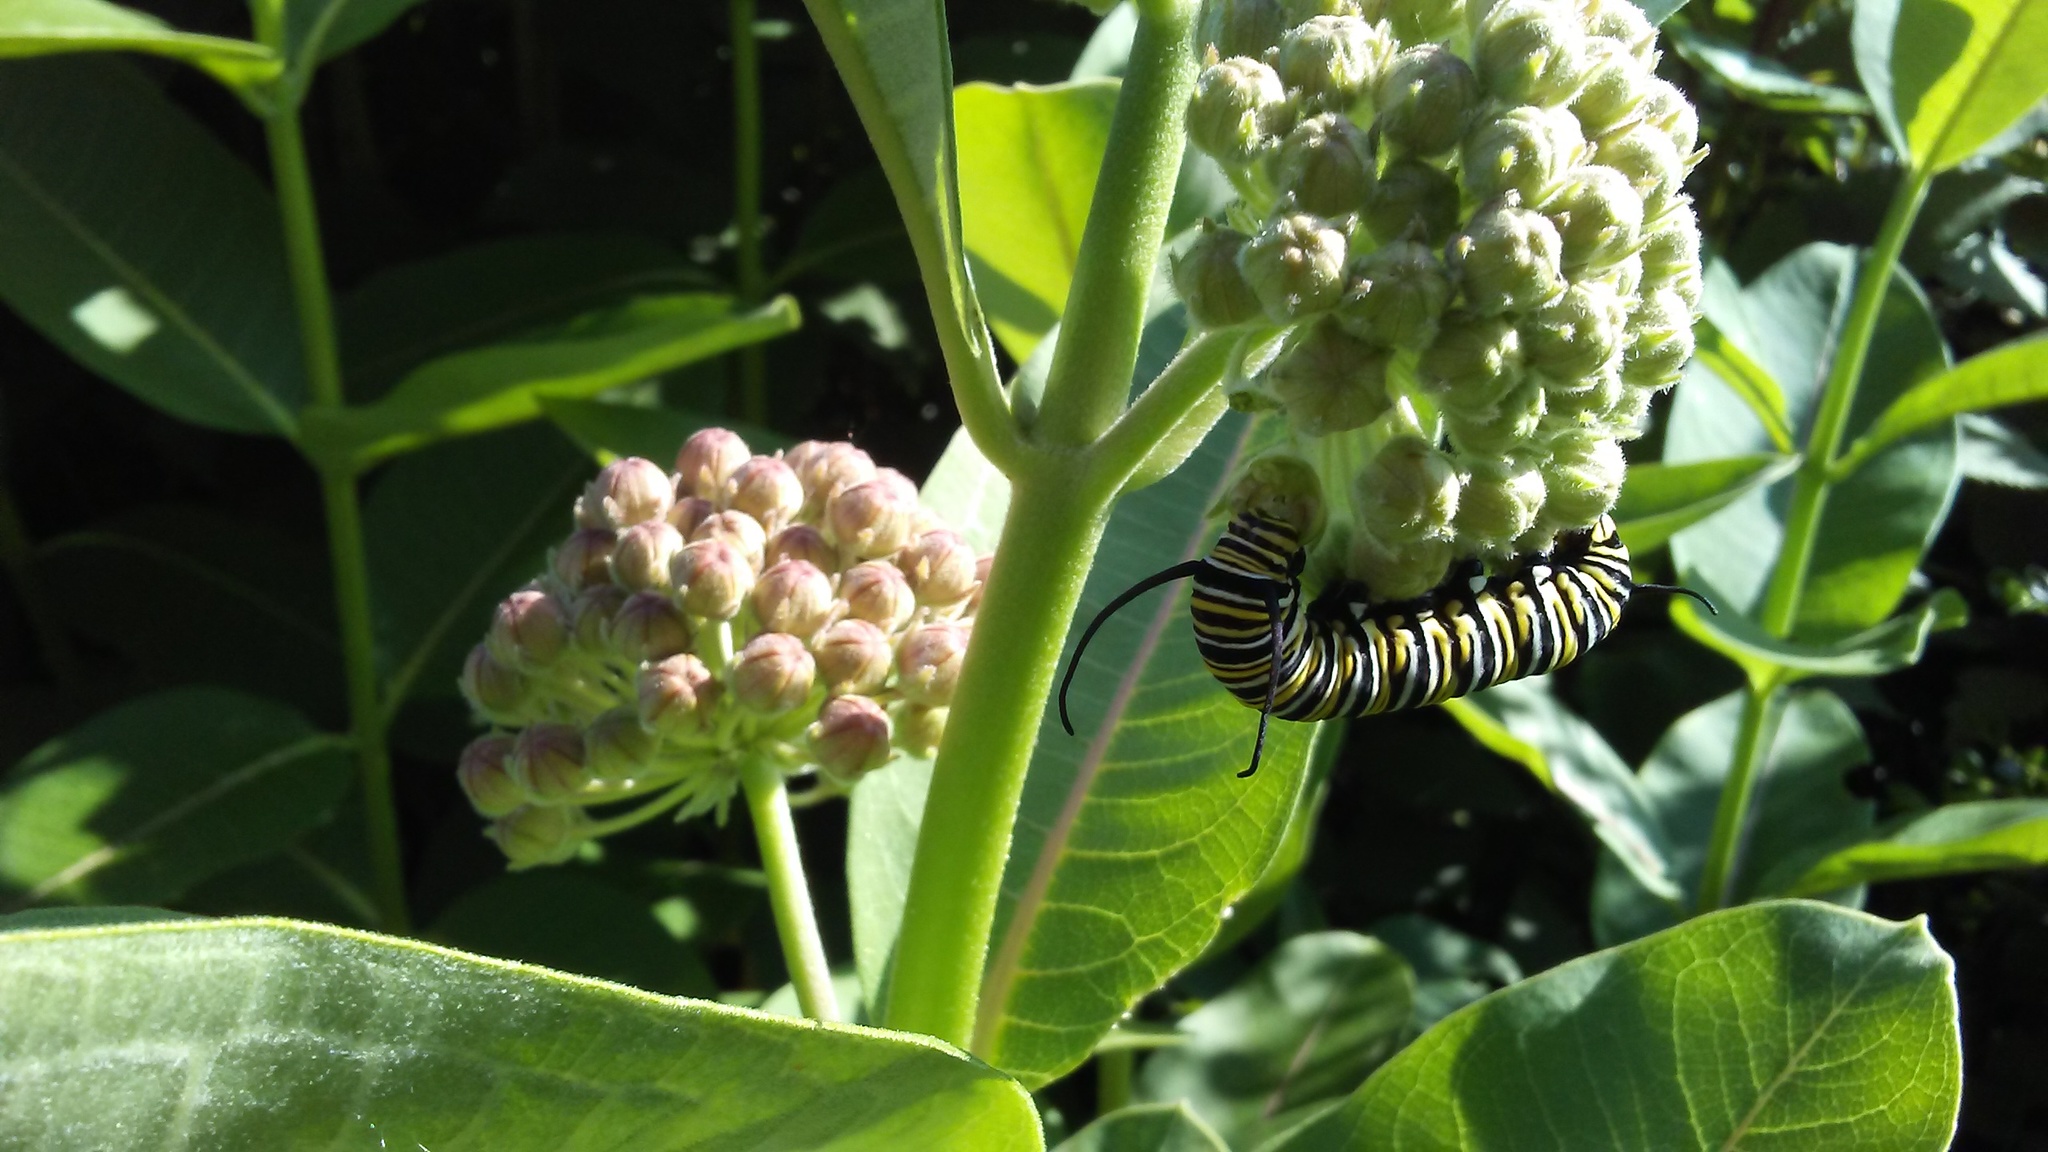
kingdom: Animalia
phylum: Arthropoda
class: Insecta
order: Lepidoptera
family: Nymphalidae
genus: Danaus
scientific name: Danaus plexippus
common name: Monarch
